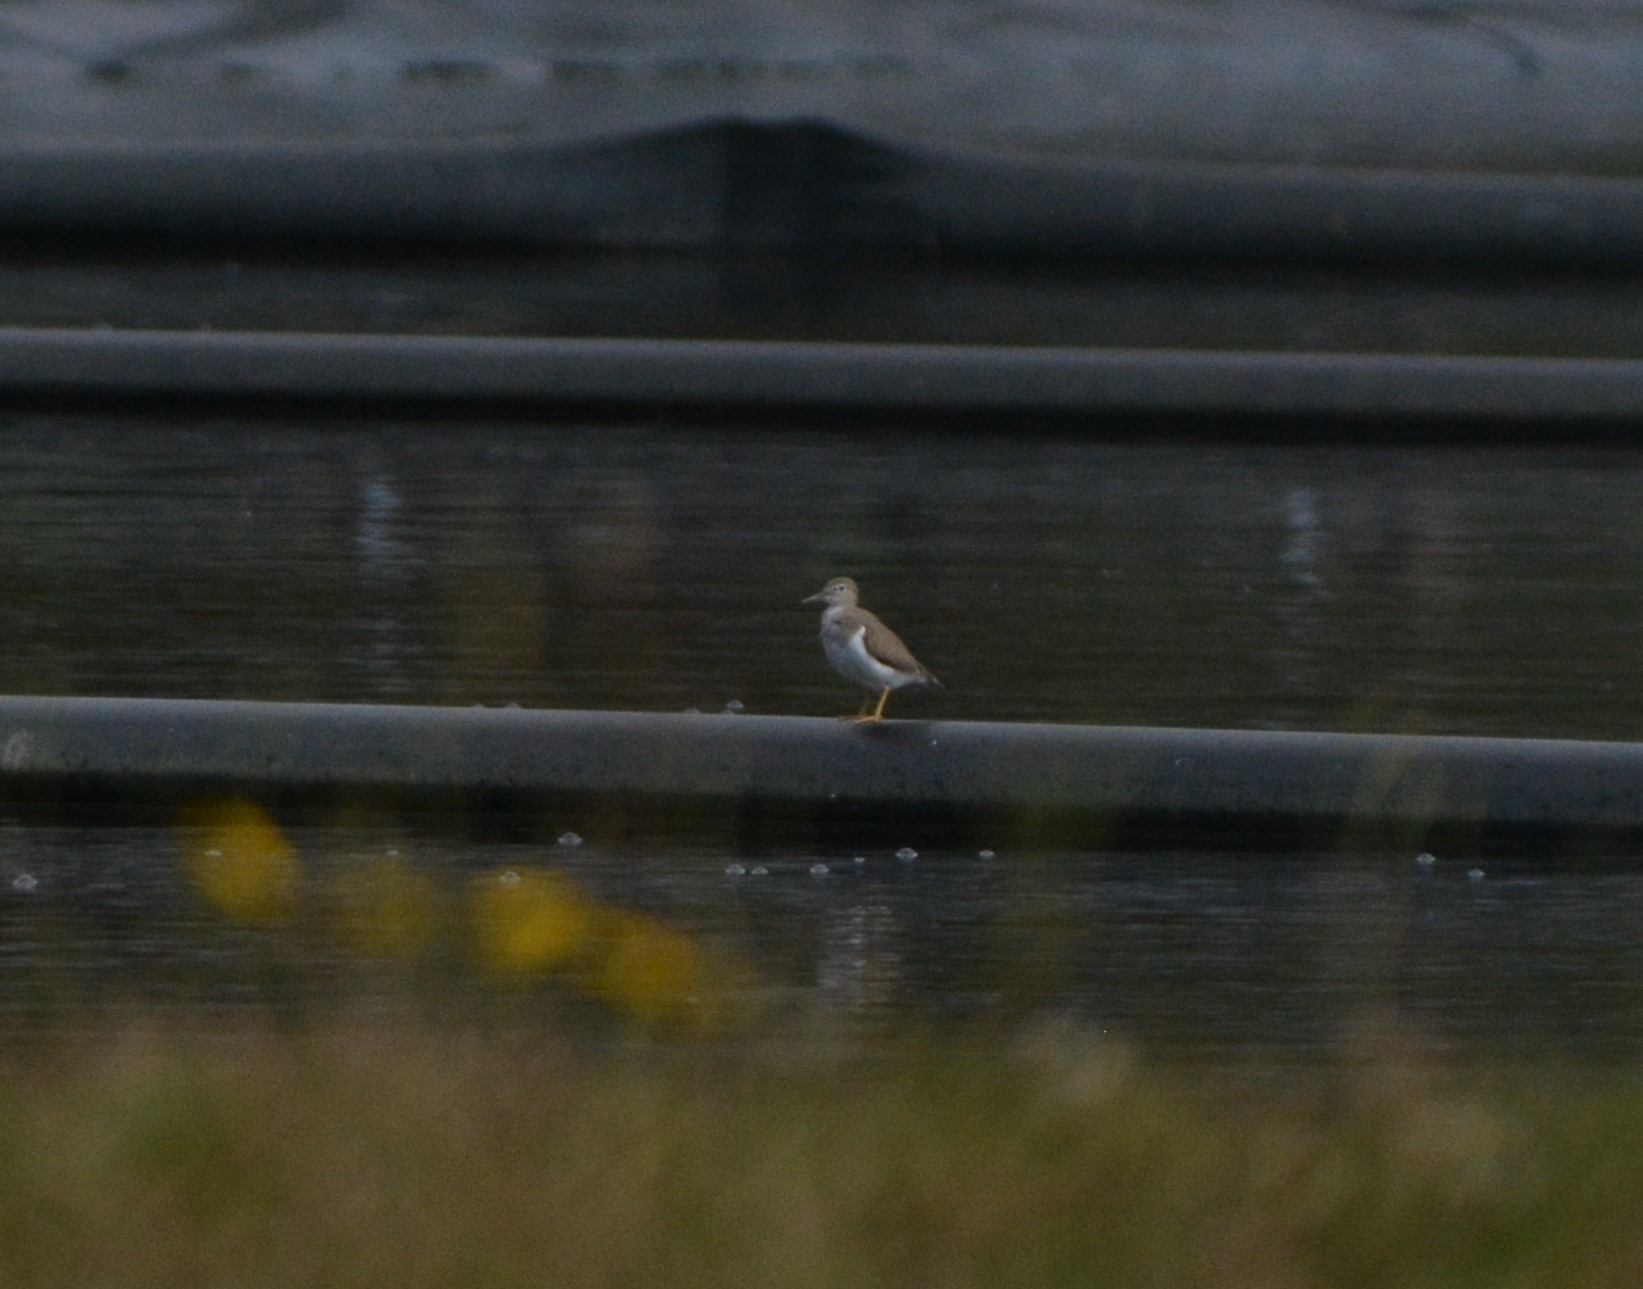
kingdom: Animalia
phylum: Chordata
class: Aves
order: Charadriiformes
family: Scolopacidae
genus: Actitis
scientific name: Actitis macularius
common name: Spotted sandpiper
